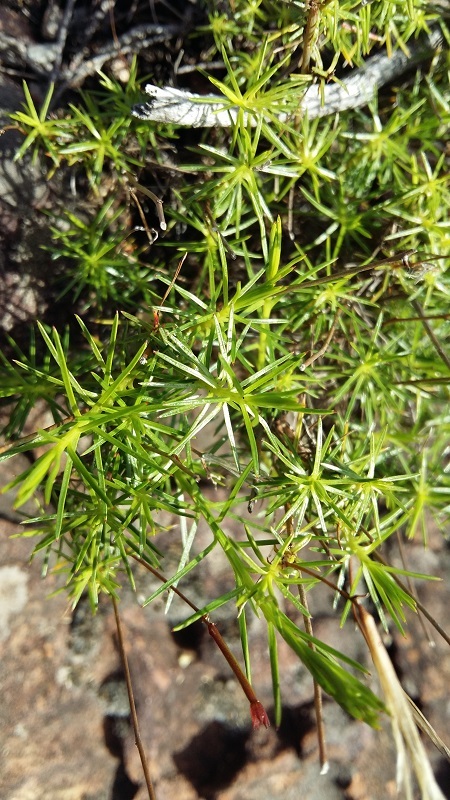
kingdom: Plantae
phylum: Tracheophyta
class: Magnoliopsida
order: Asterales
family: Campanulaceae
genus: Prismatocarpus
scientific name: Prismatocarpus diffusus
